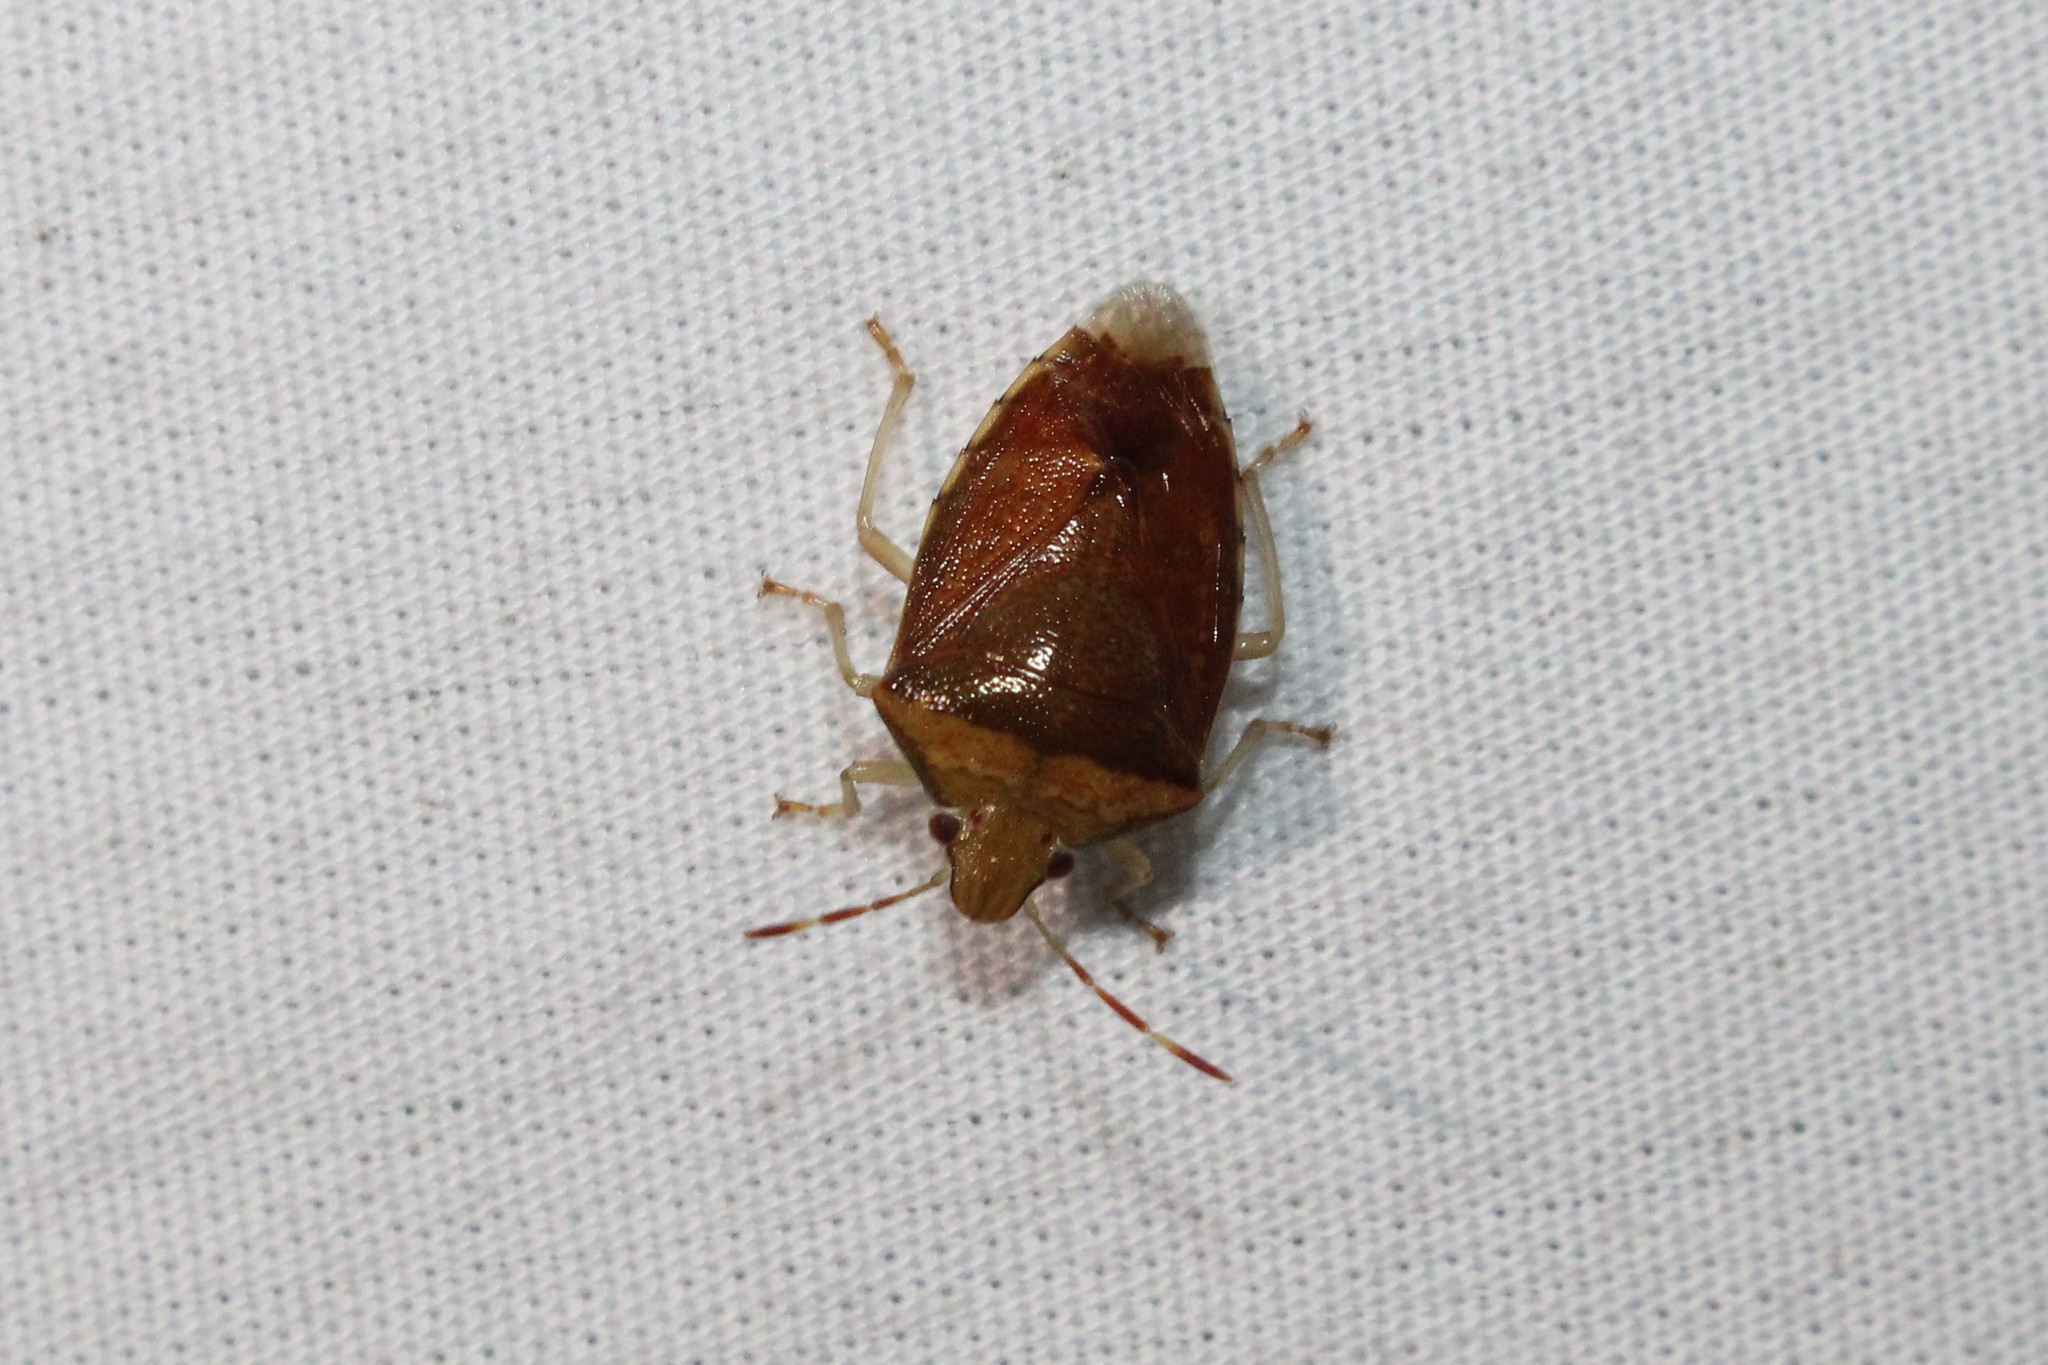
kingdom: Animalia
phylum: Arthropoda
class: Insecta
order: Hemiptera
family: Pentatomidae
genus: Banasa
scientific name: Banasa calva
